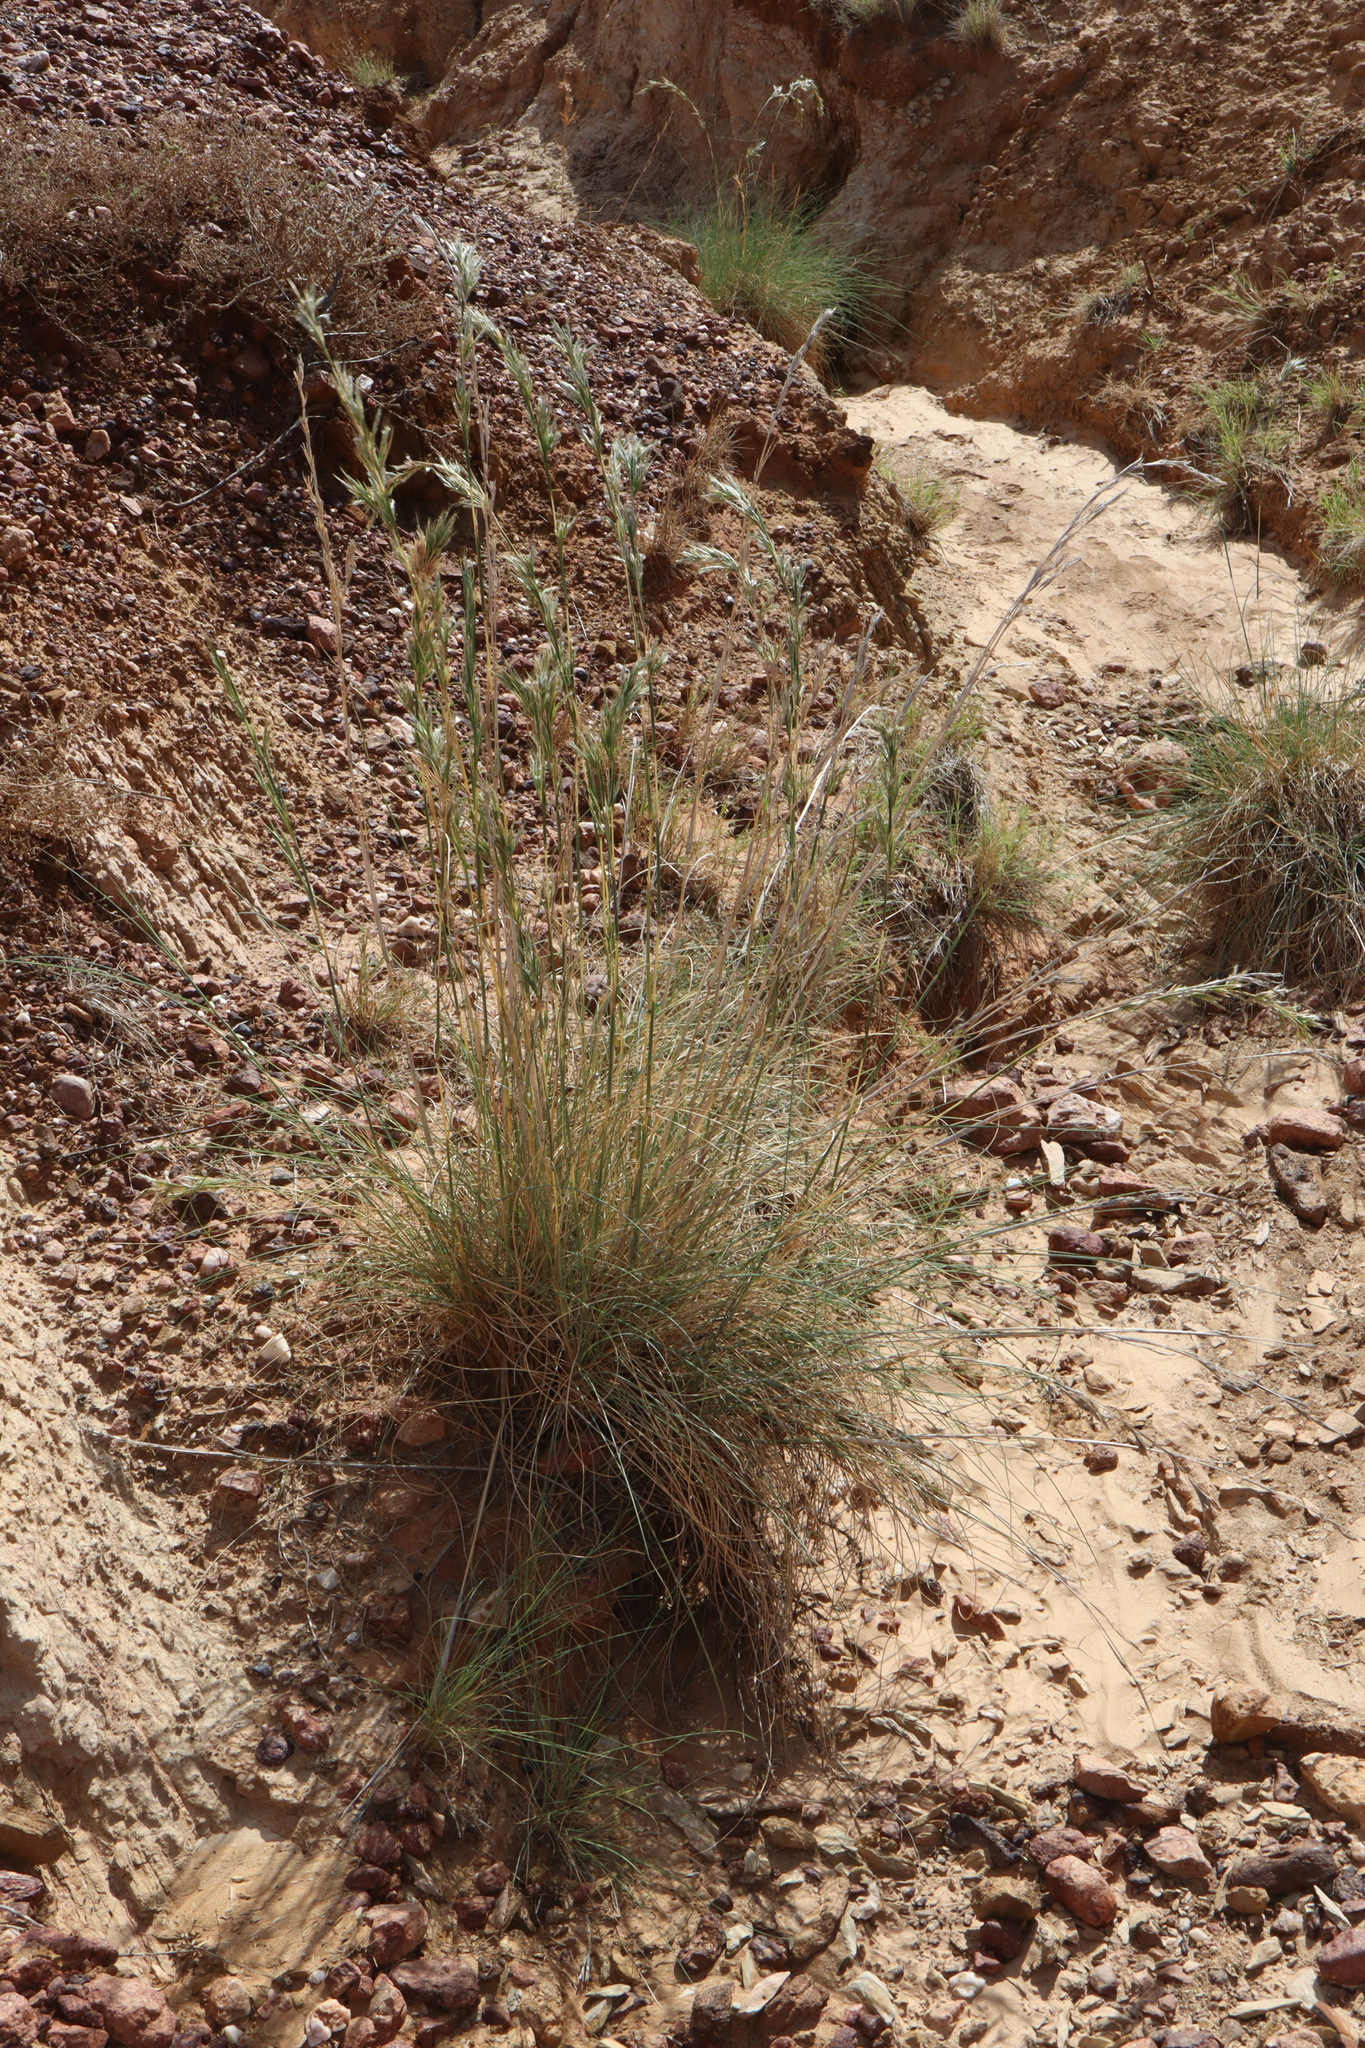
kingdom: Plantae
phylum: Tracheophyta
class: Liliopsida
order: Poales
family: Poaceae
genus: Cymbopogon
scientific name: Cymbopogon ambiguus
